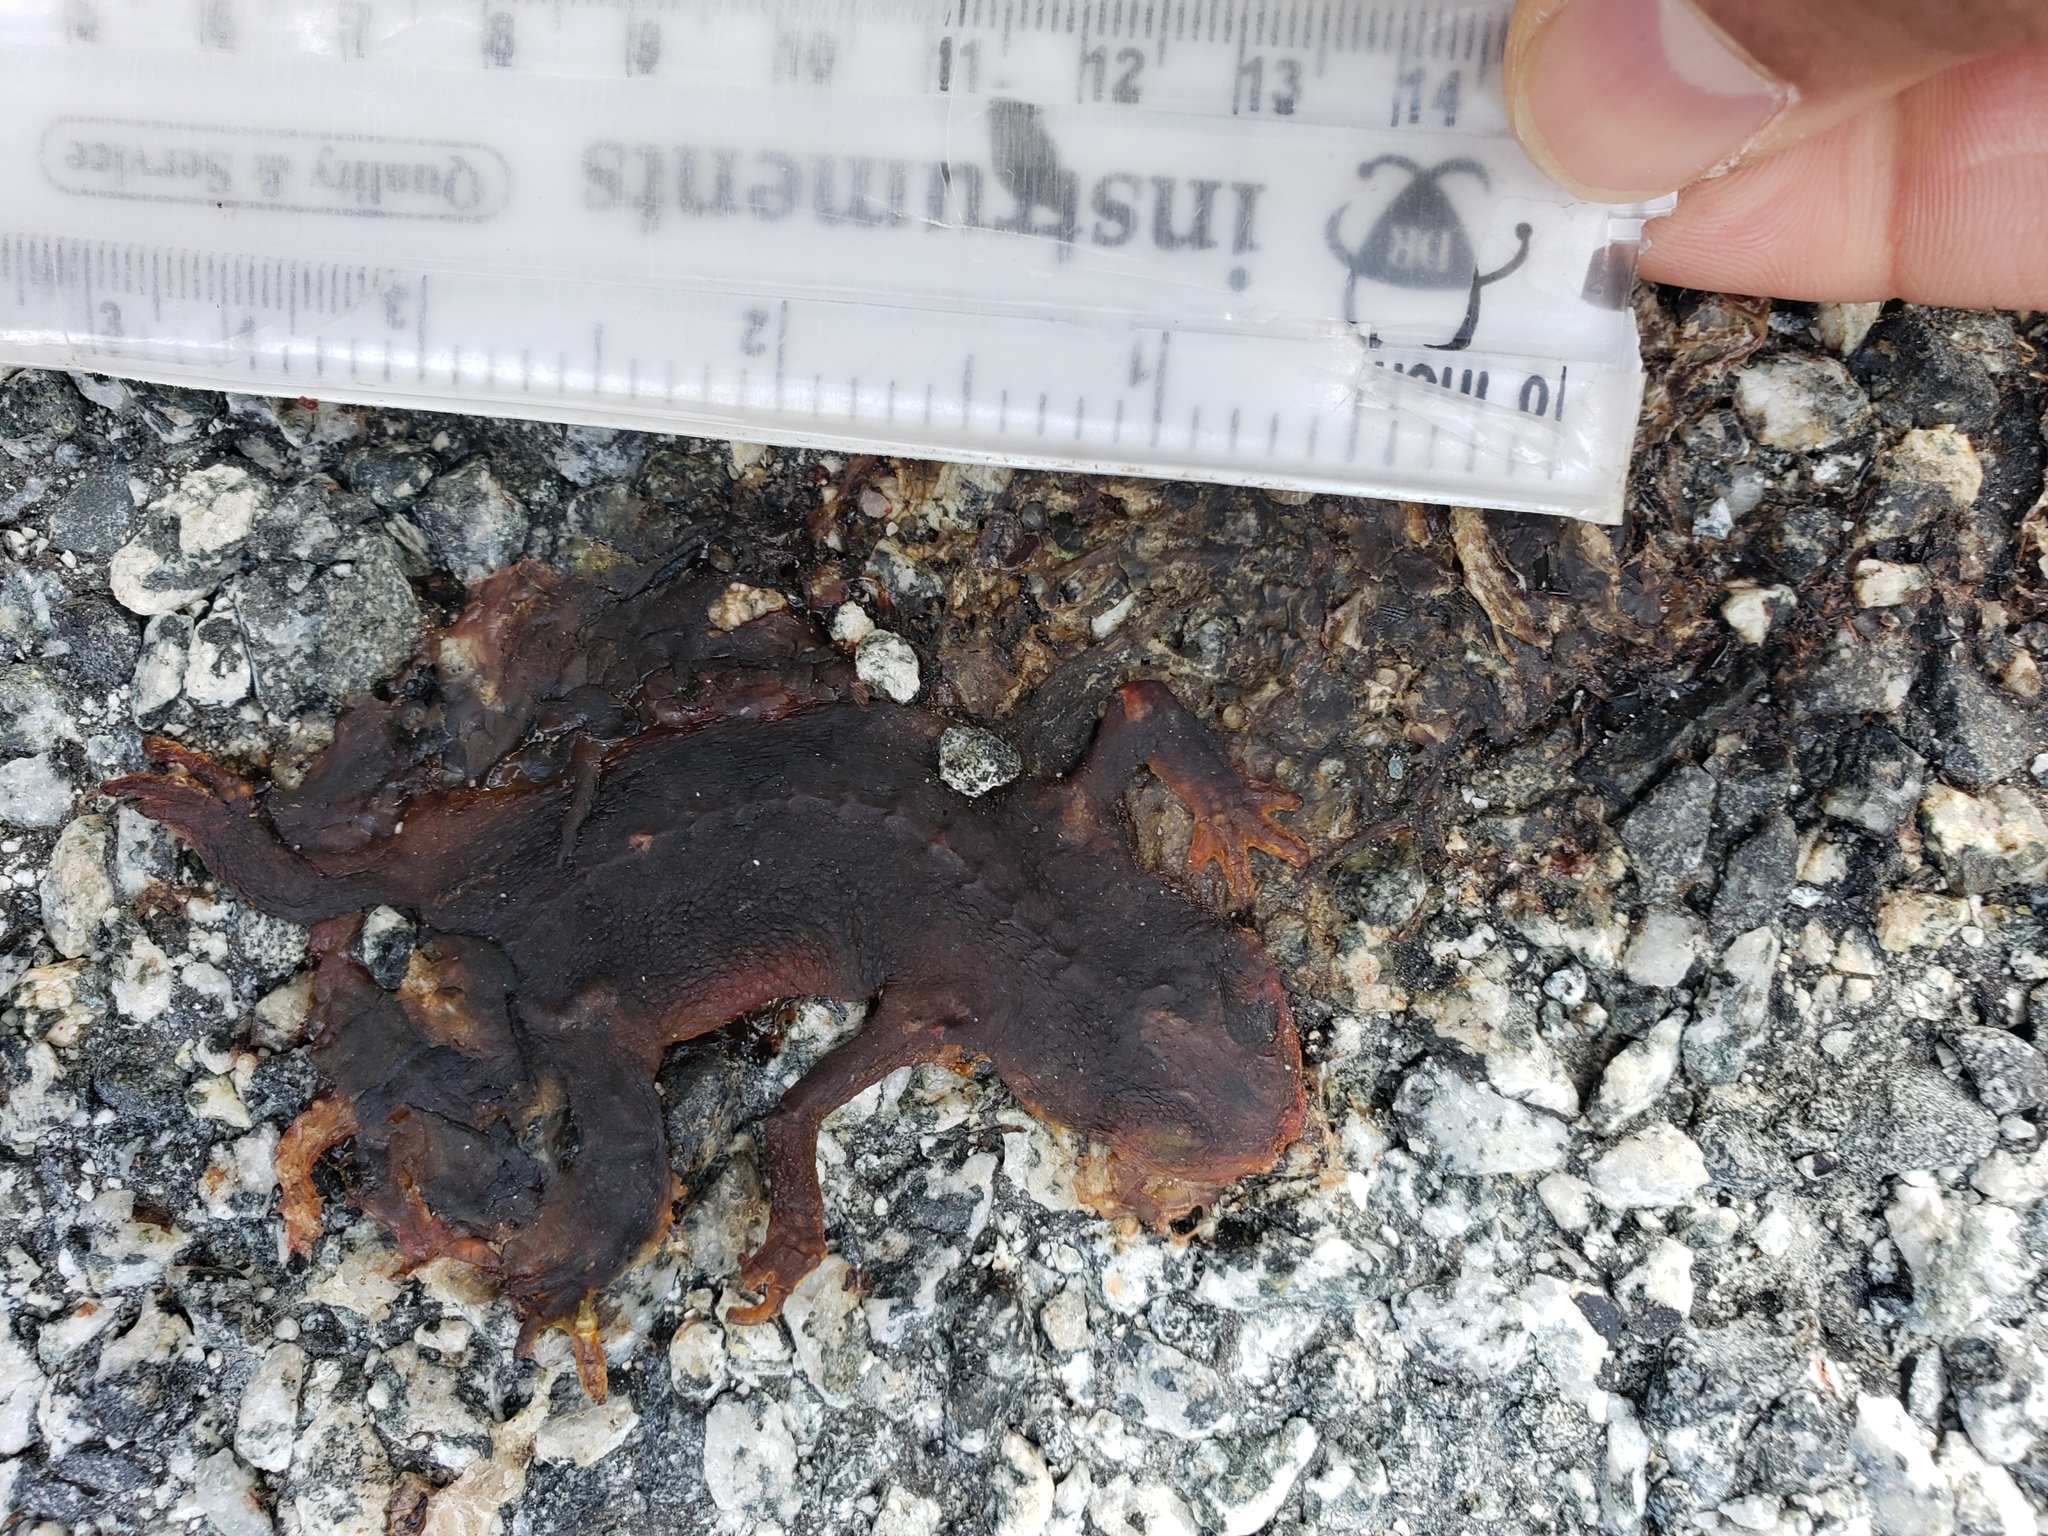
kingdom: Animalia
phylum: Chordata
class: Amphibia
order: Caudata
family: Salamandridae
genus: Taricha
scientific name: Taricha
